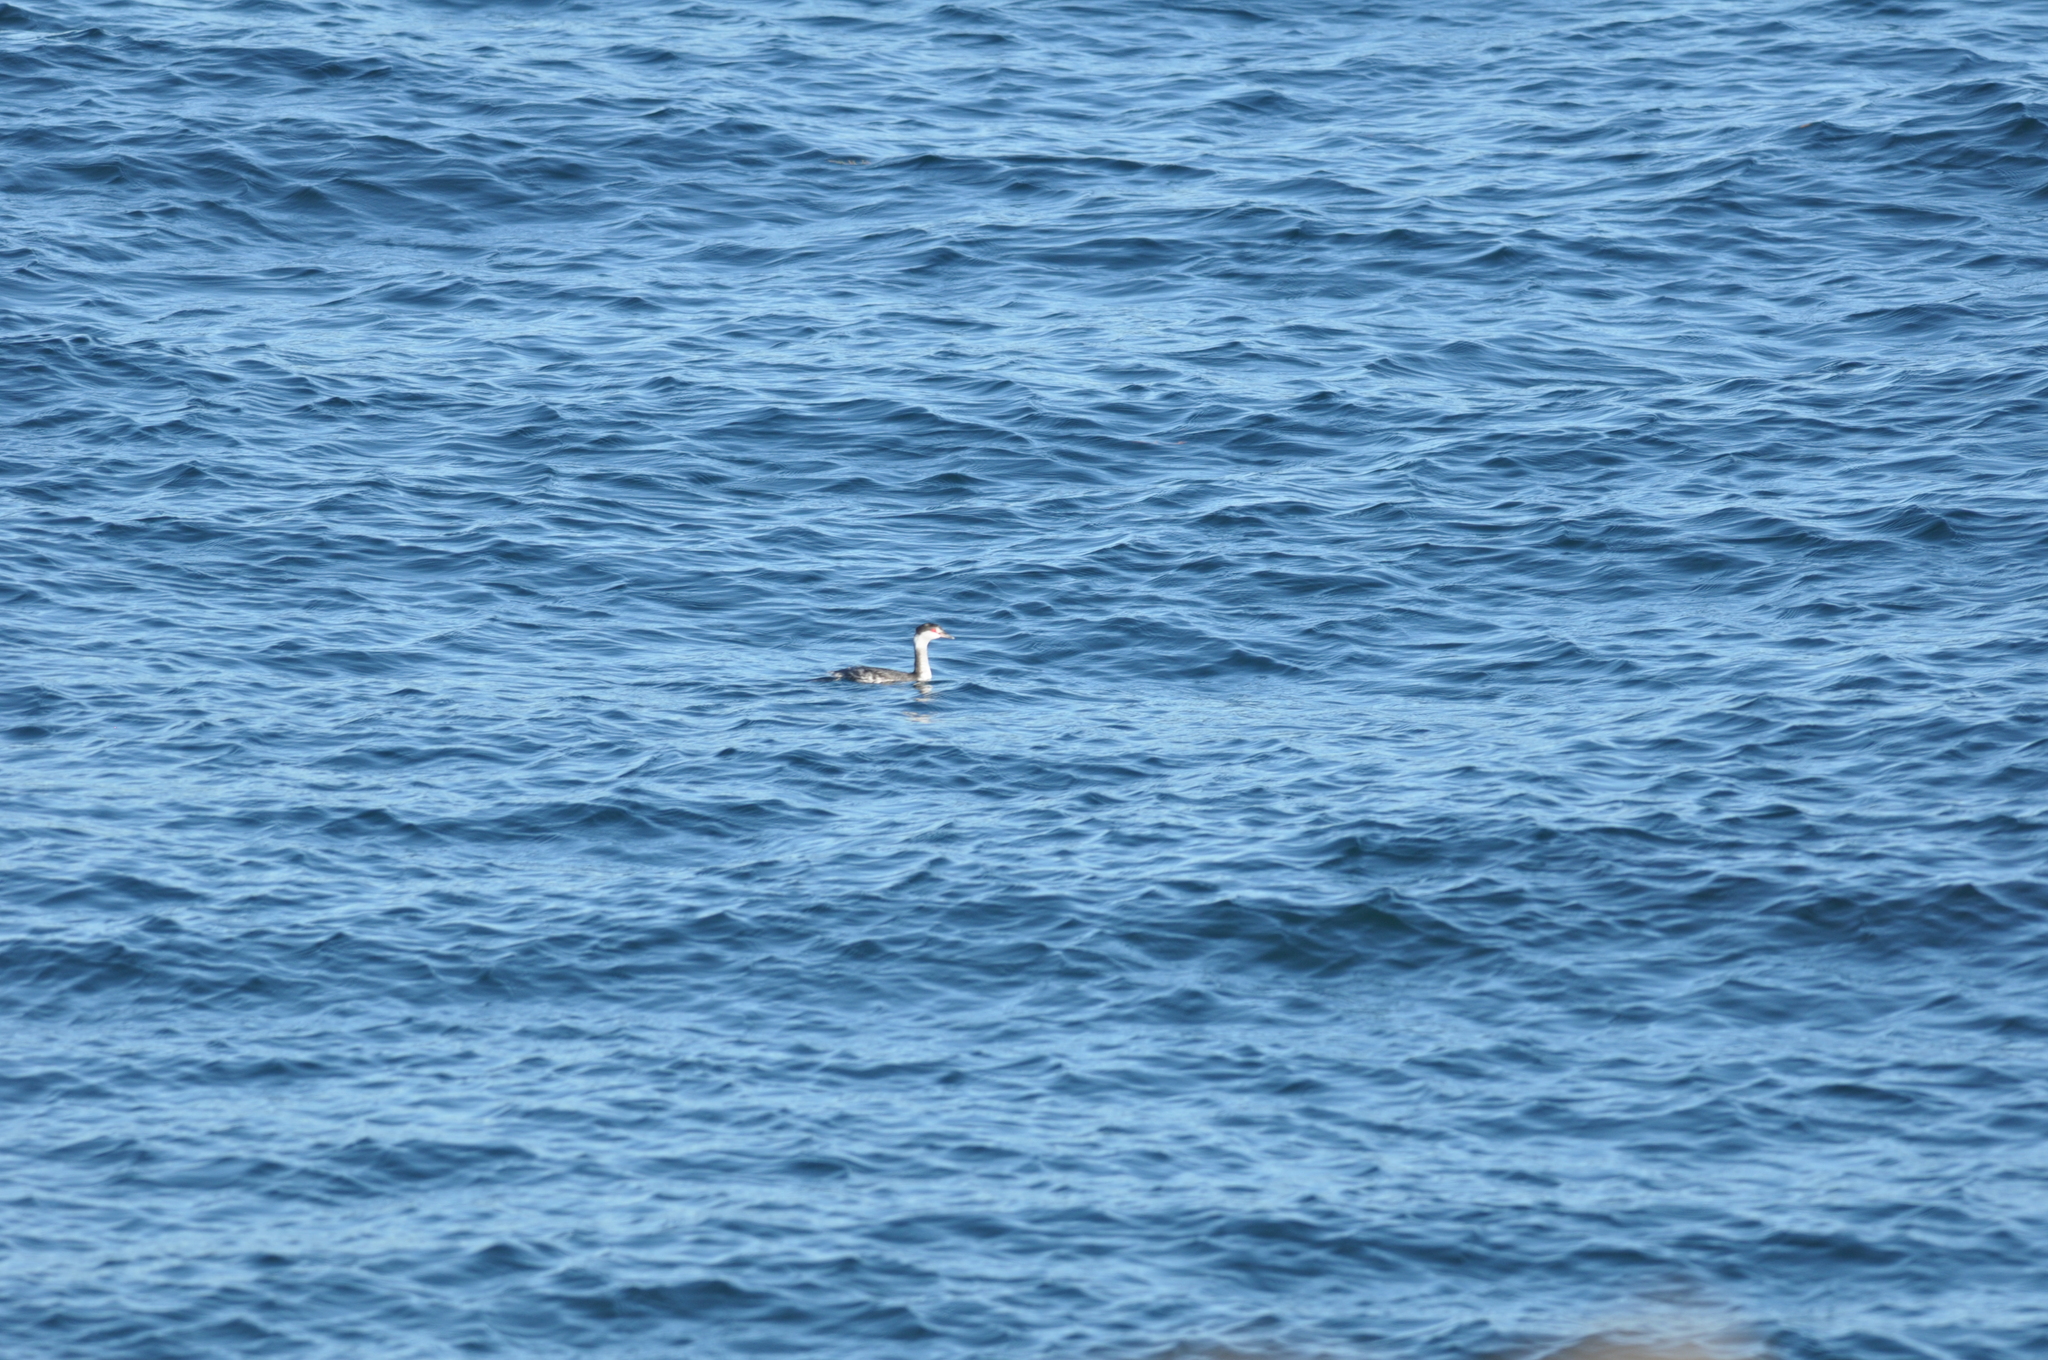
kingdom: Animalia
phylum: Chordata
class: Aves
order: Podicipediformes
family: Podicipedidae
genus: Podiceps
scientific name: Podiceps auritus
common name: Horned grebe
